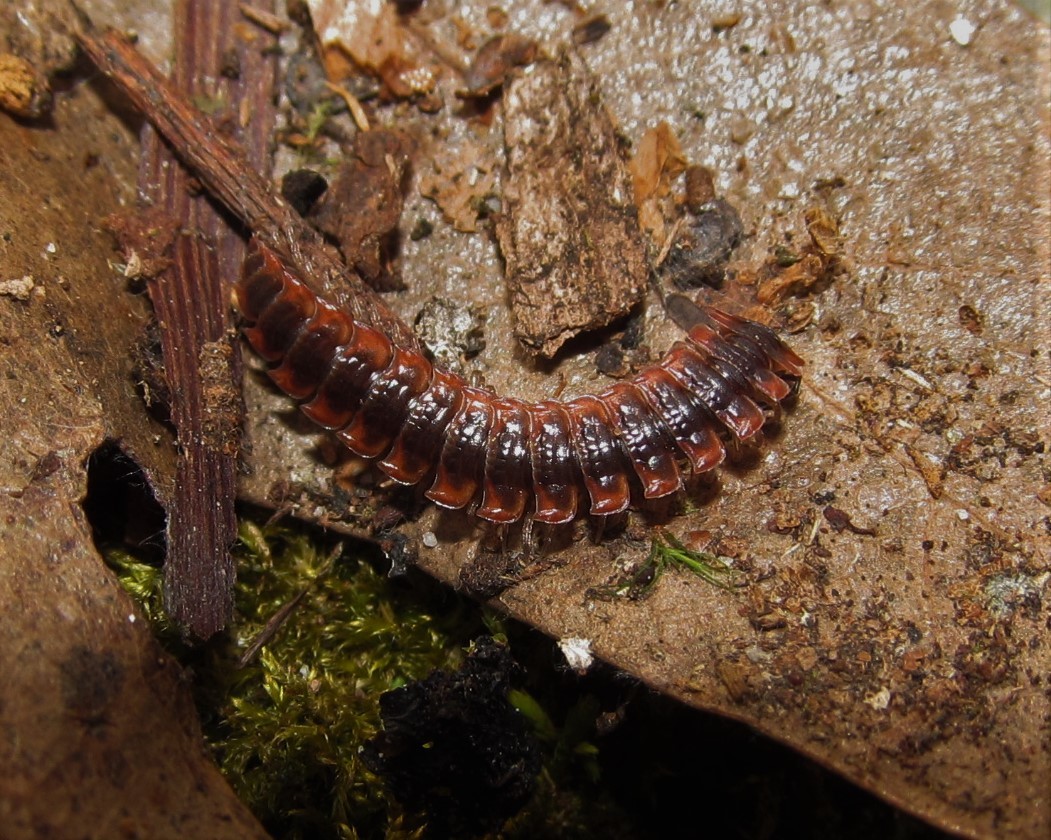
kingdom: Animalia
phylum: Arthropoda
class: Diplopoda
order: Polydesmida
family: Polydesmidae
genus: Pseudopolydesmus
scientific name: Pseudopolydesmus canadensis
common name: Canadian flat-back millipede
